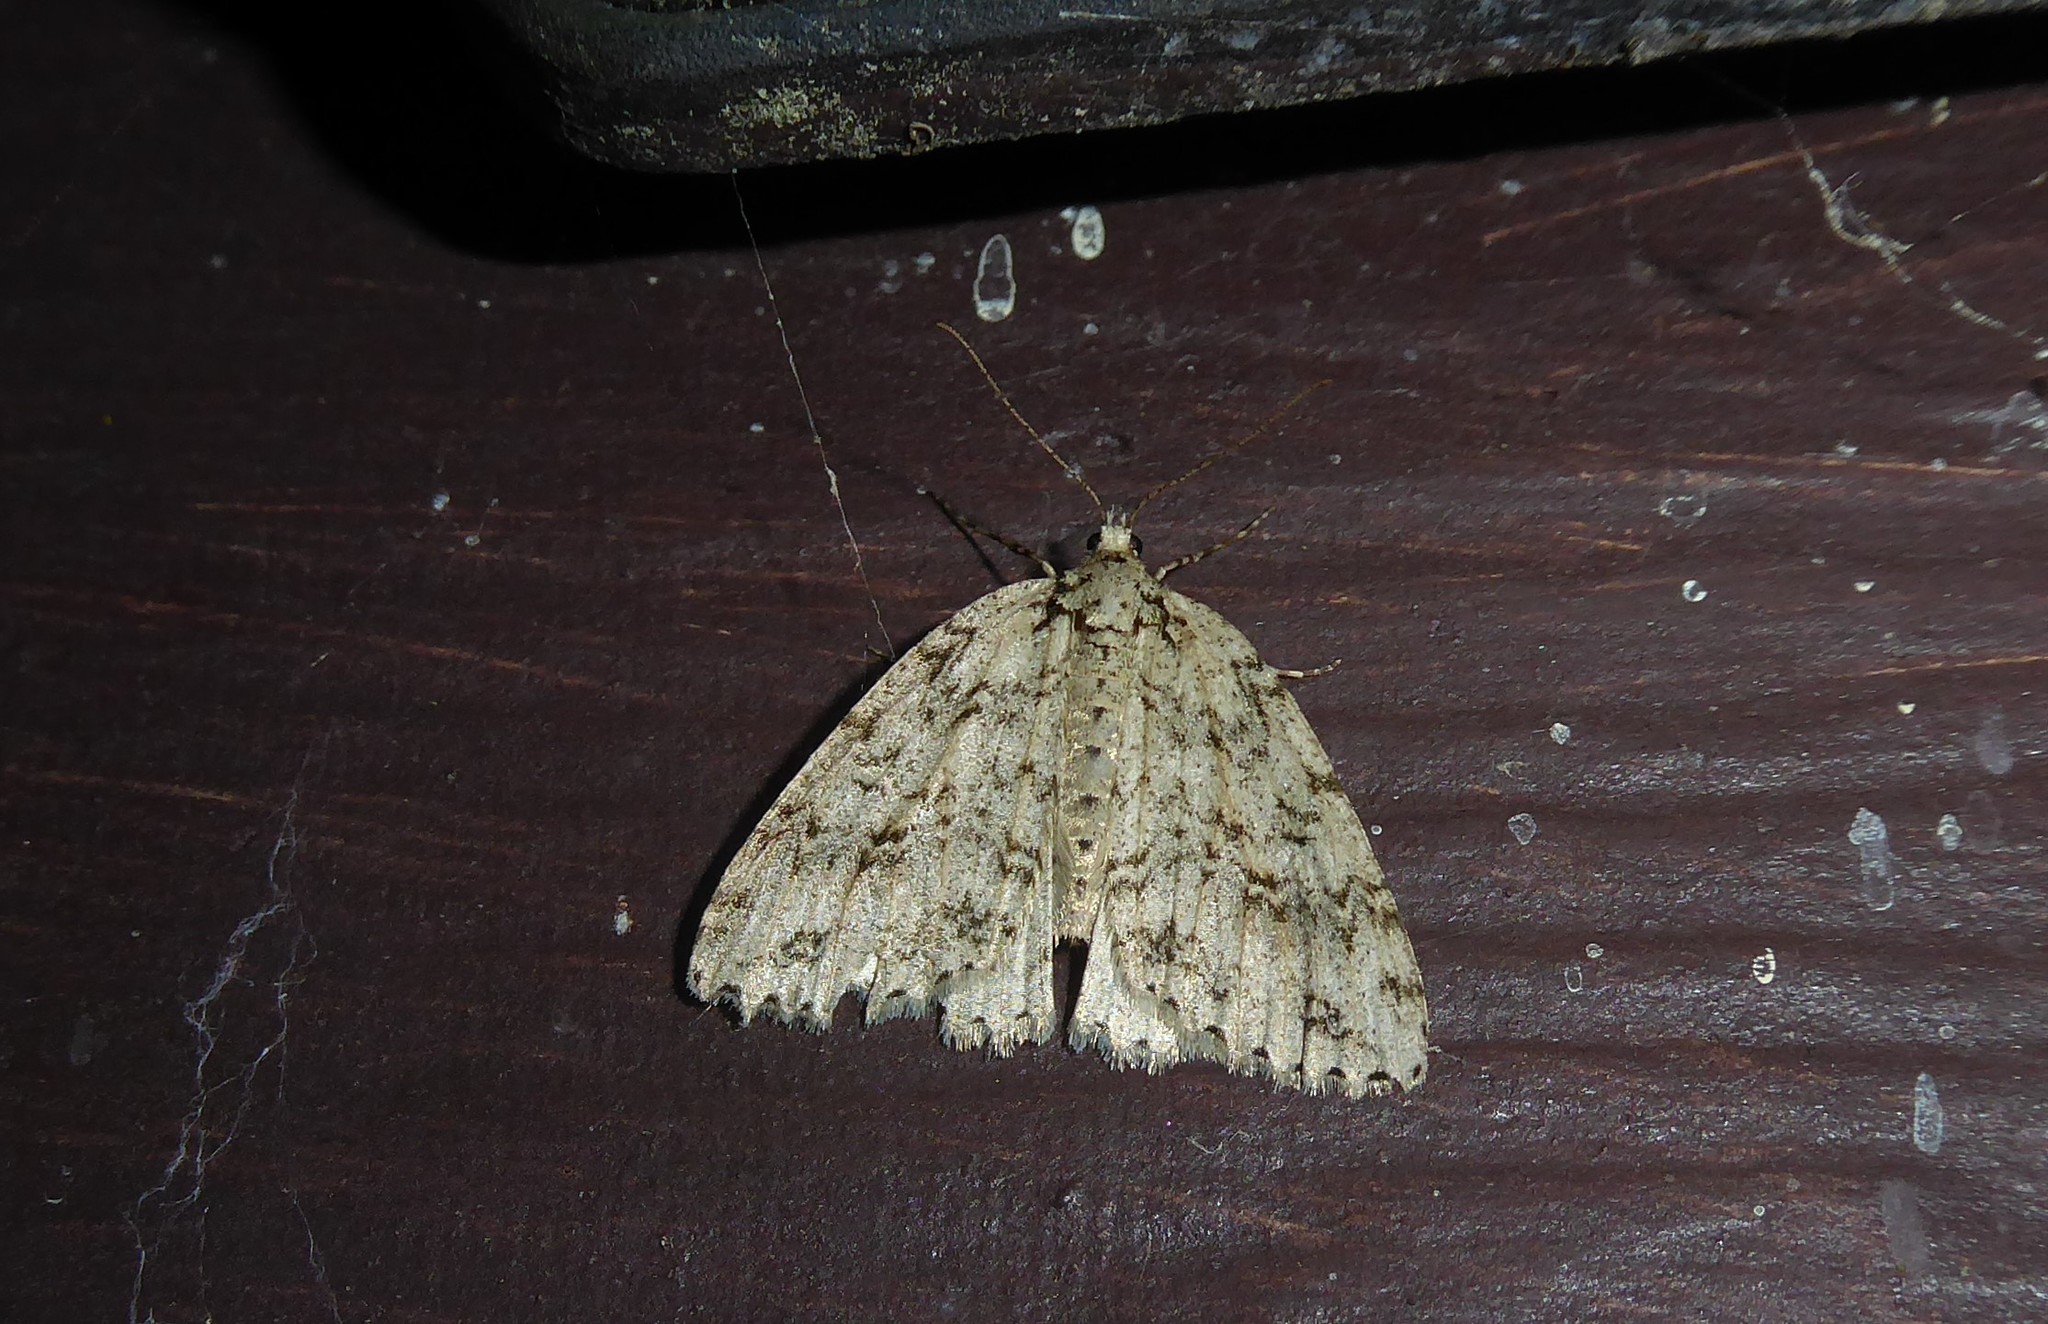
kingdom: Animalia
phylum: Arthropoda
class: Insecta
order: Lepidoptera
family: Geometridae
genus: Pseudocoremia
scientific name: Pseudocoremia rudisata
